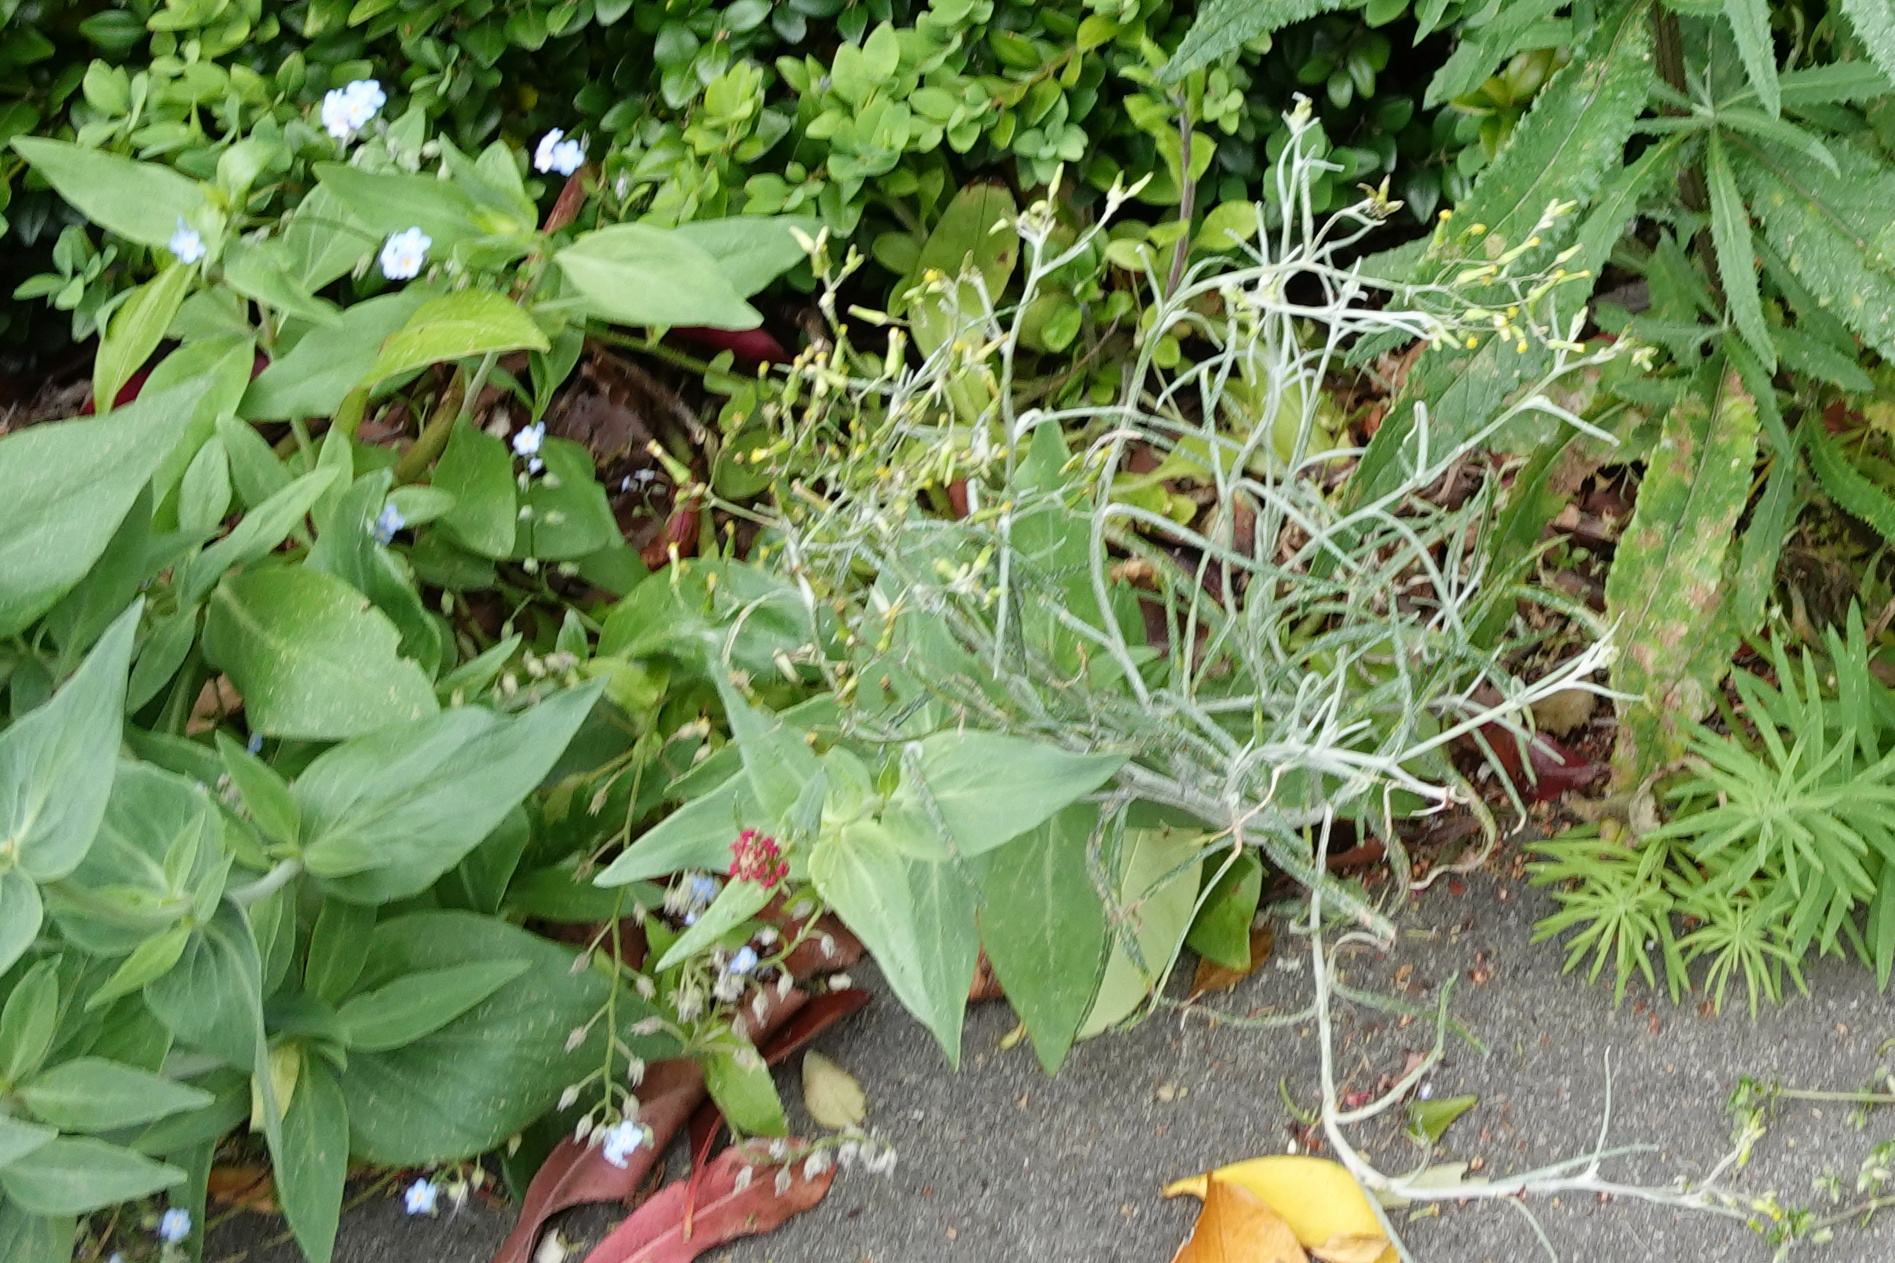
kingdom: Plantae
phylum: Tracheophyta
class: Magnoliopsida
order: Asterales
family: Asteraceae
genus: Senecio
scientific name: Senecio quadridentatus
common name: Cotton fireweed
